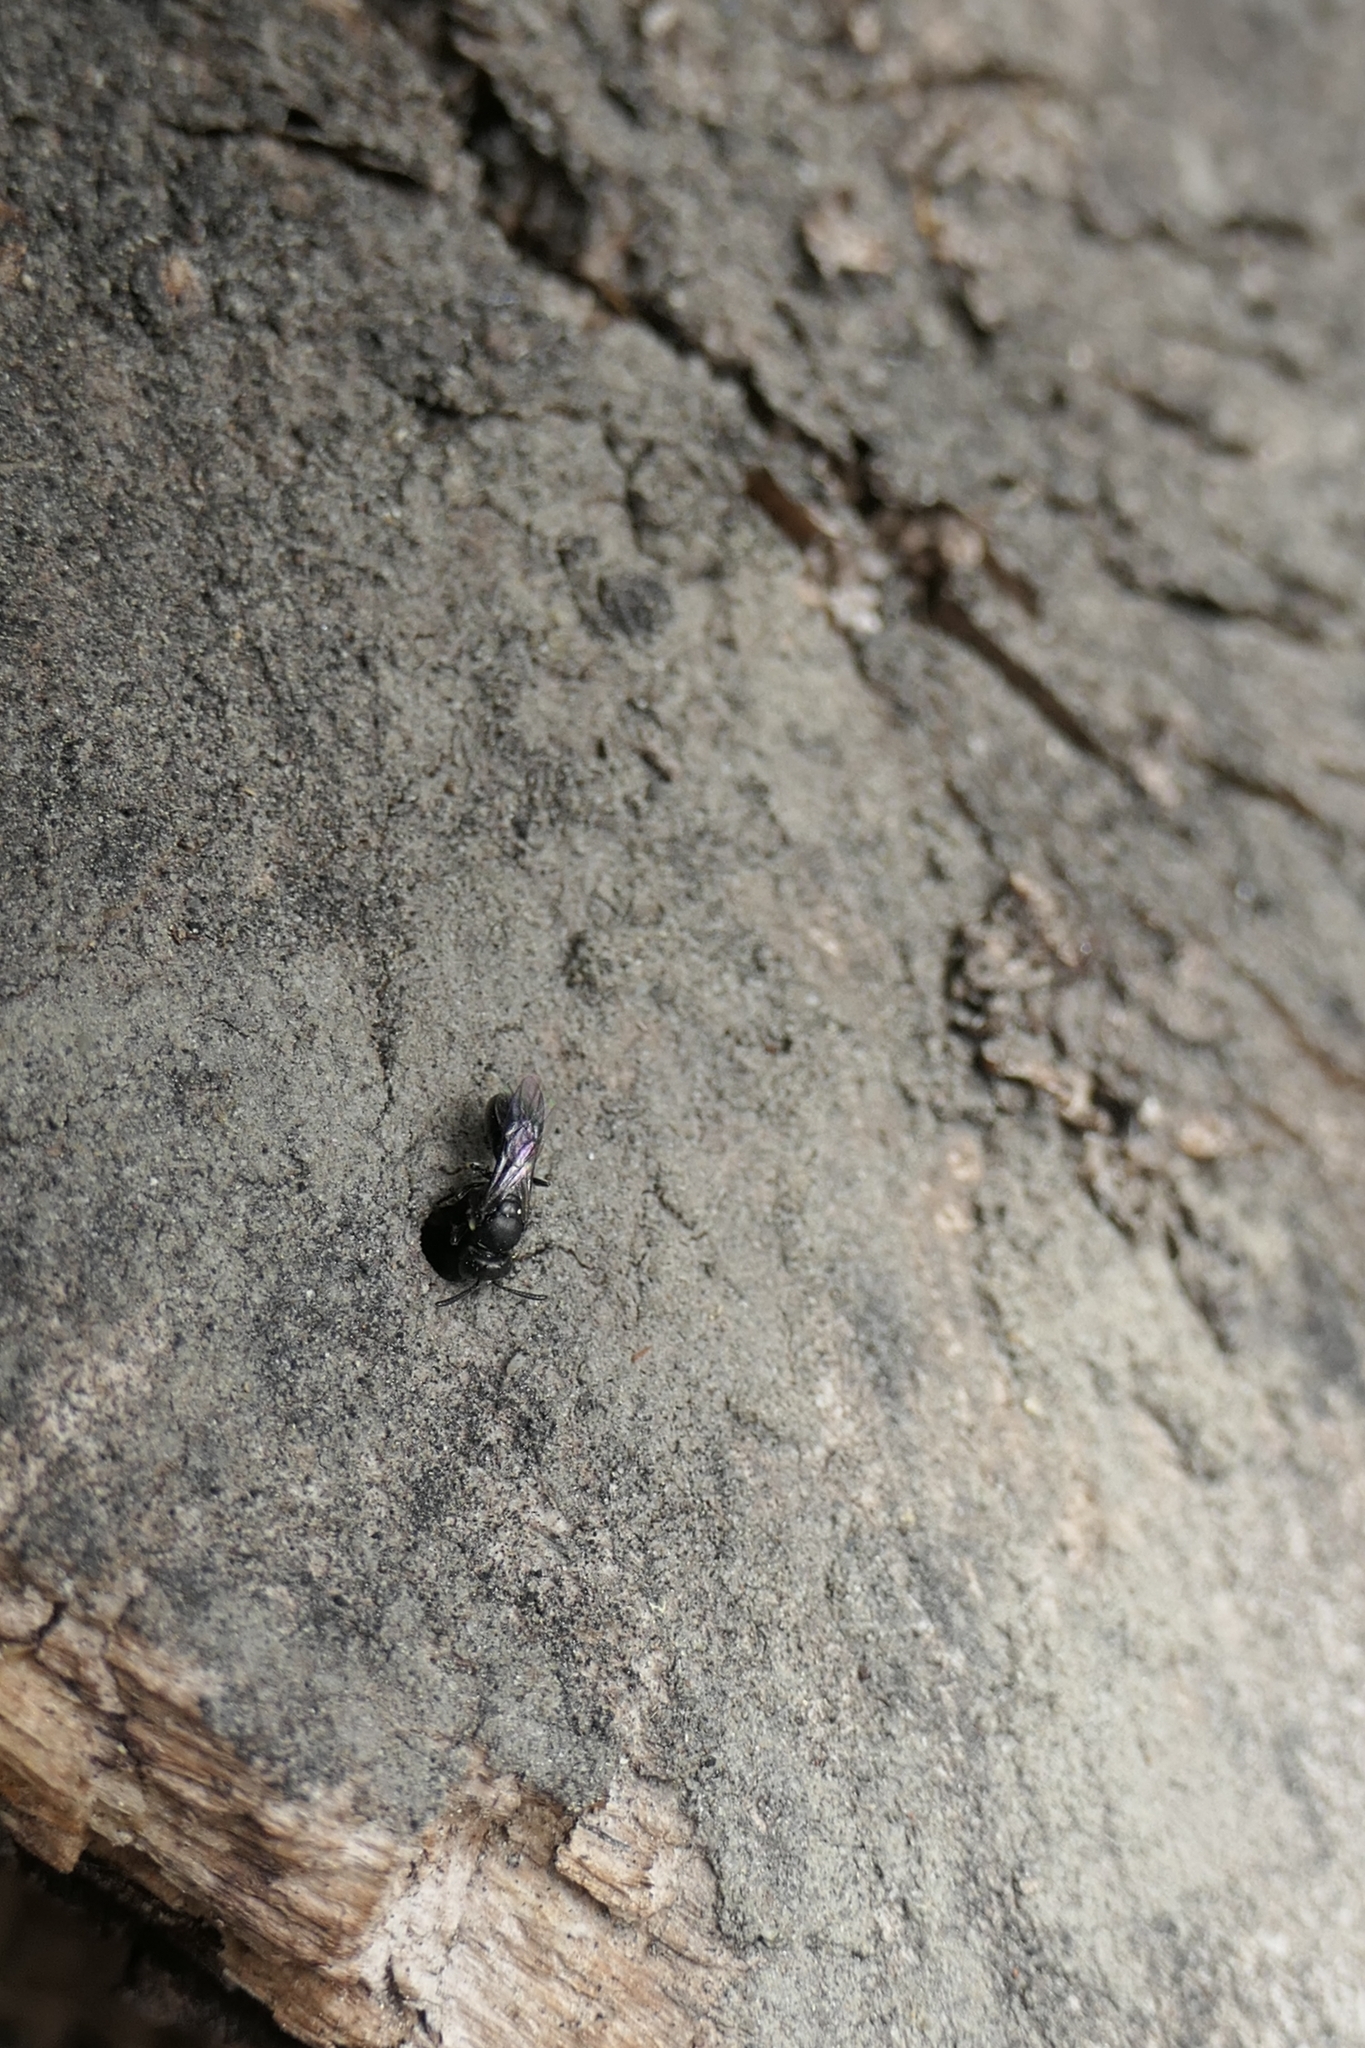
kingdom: Animalia
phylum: Arthropoda
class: Insecta
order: Hymenoptera
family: Colletidae
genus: Hylaeus
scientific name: Hylaeus perhumilis
